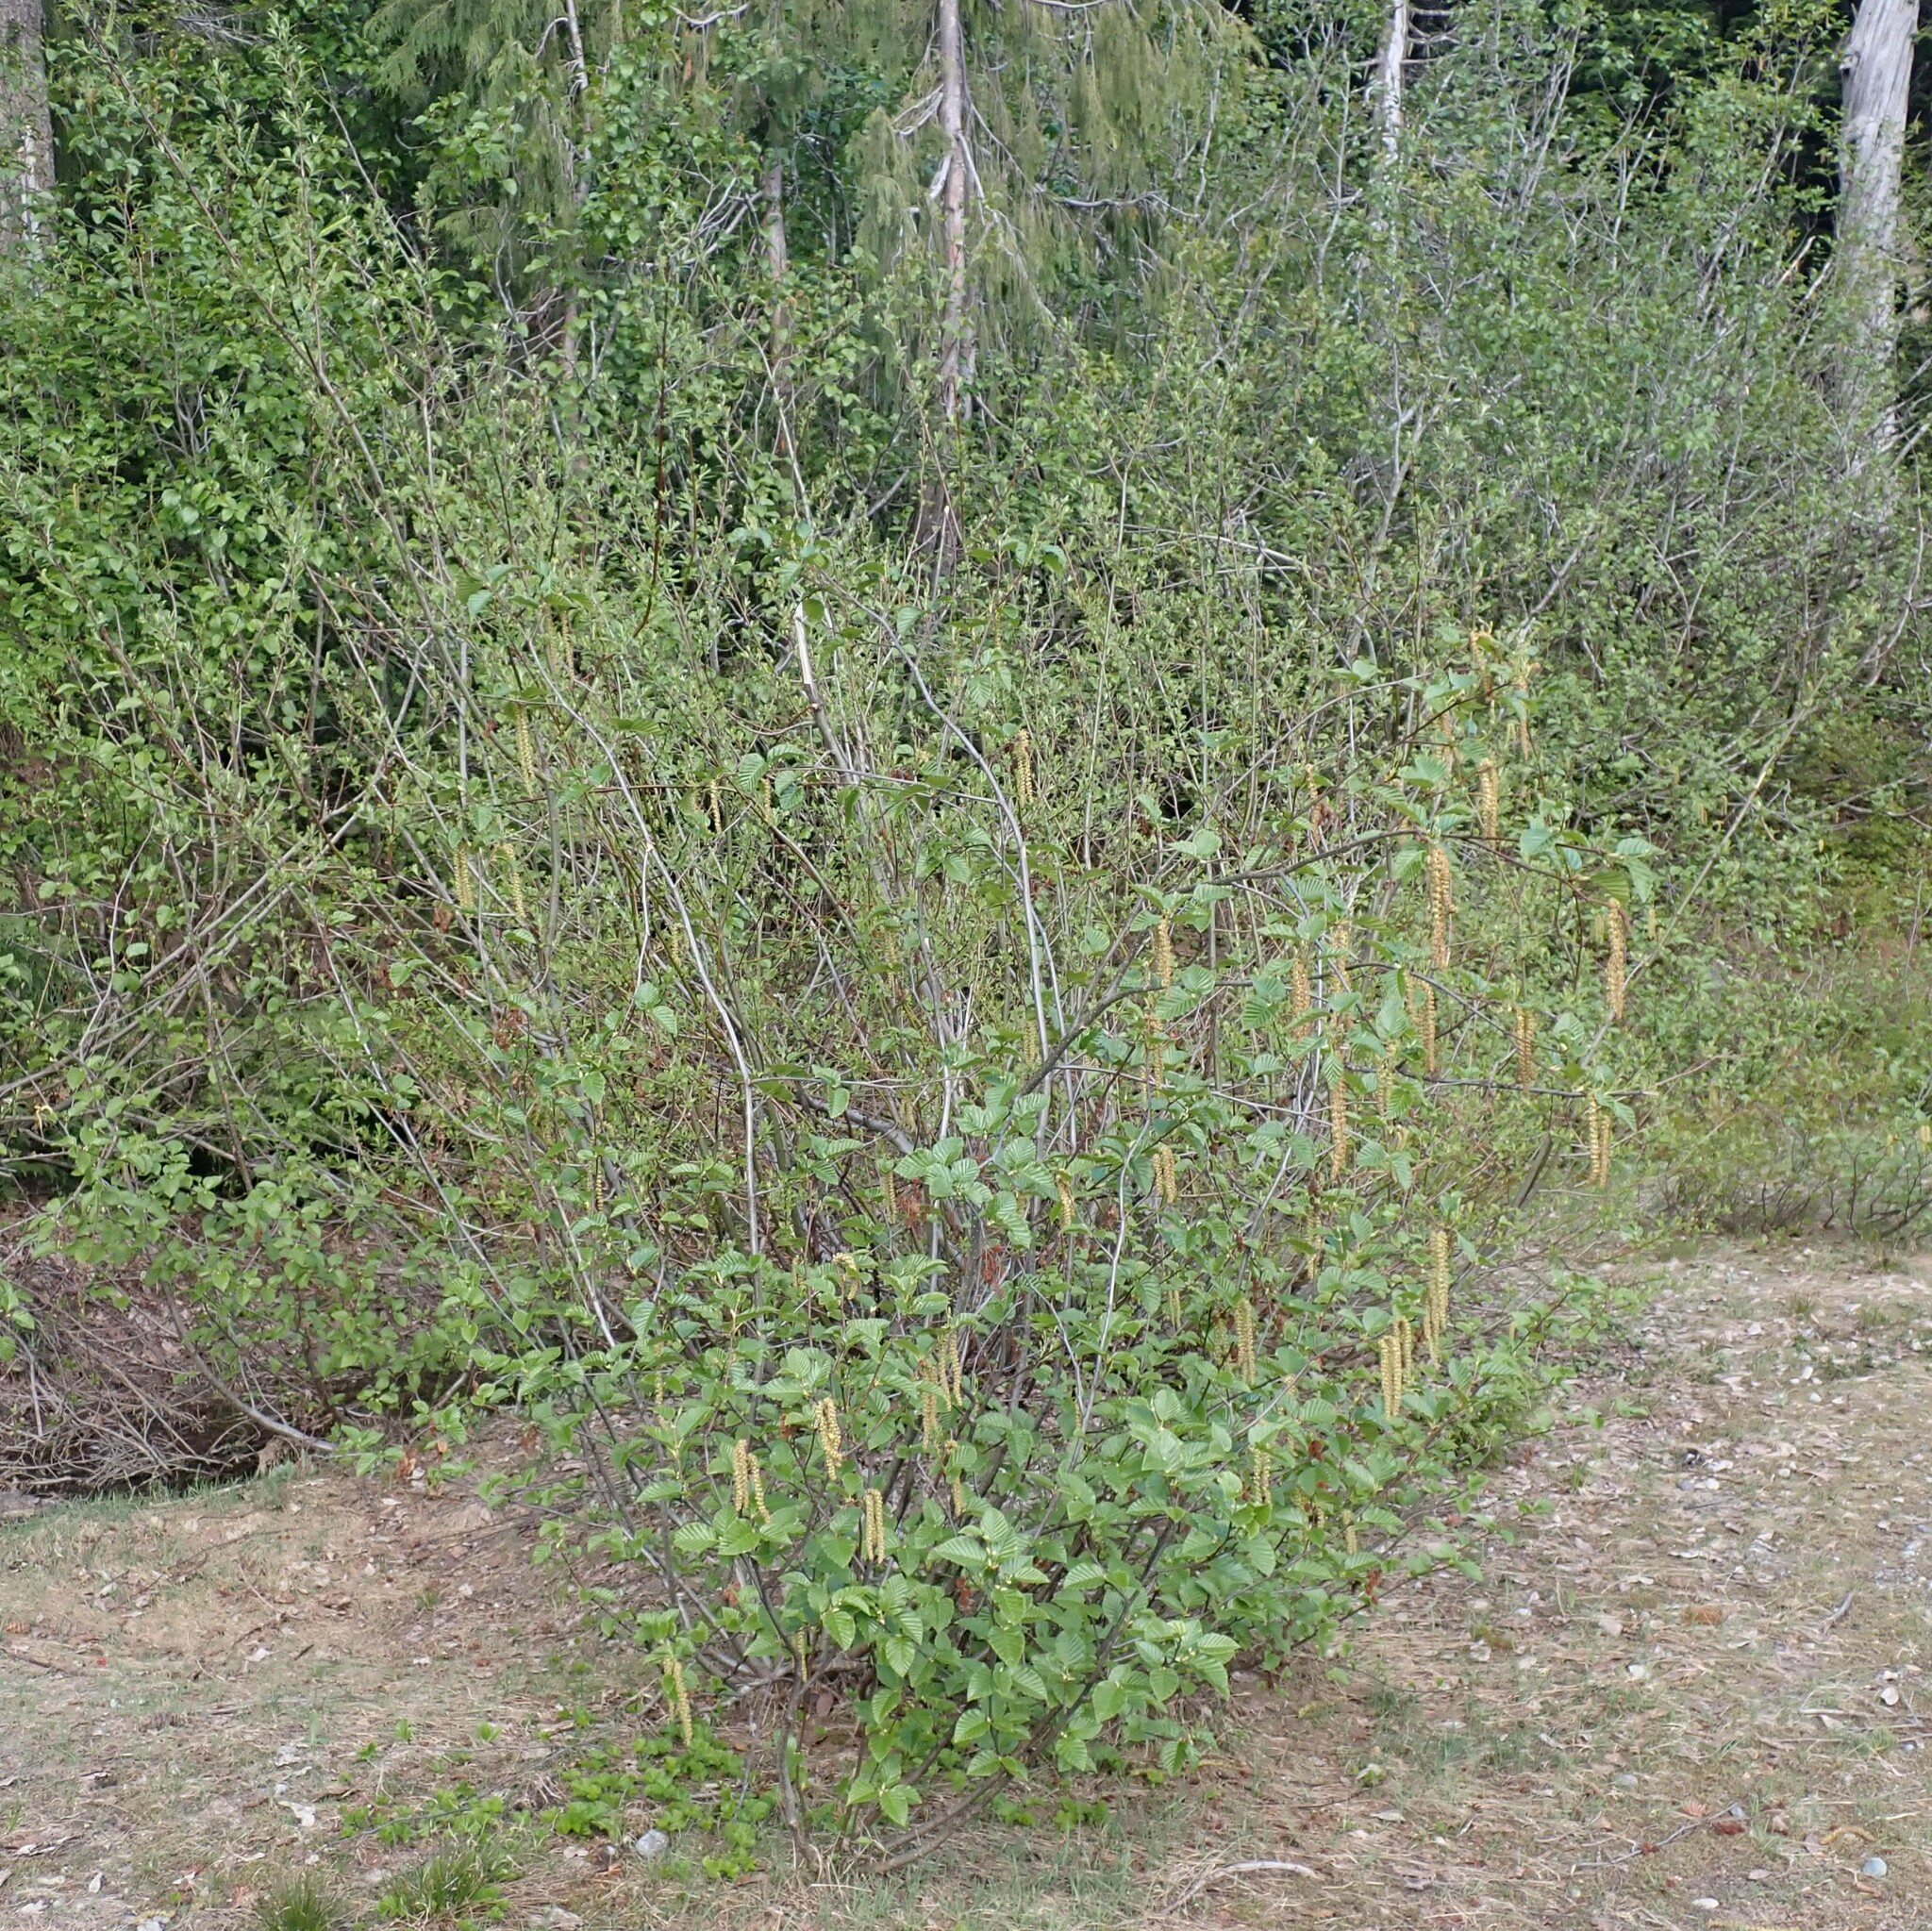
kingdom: Plantae
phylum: Tracheophyta
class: Magnoliopsida
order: Fagales
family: Betulaceae
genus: Alnus
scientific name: Alnus alnobetula
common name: Green alder
